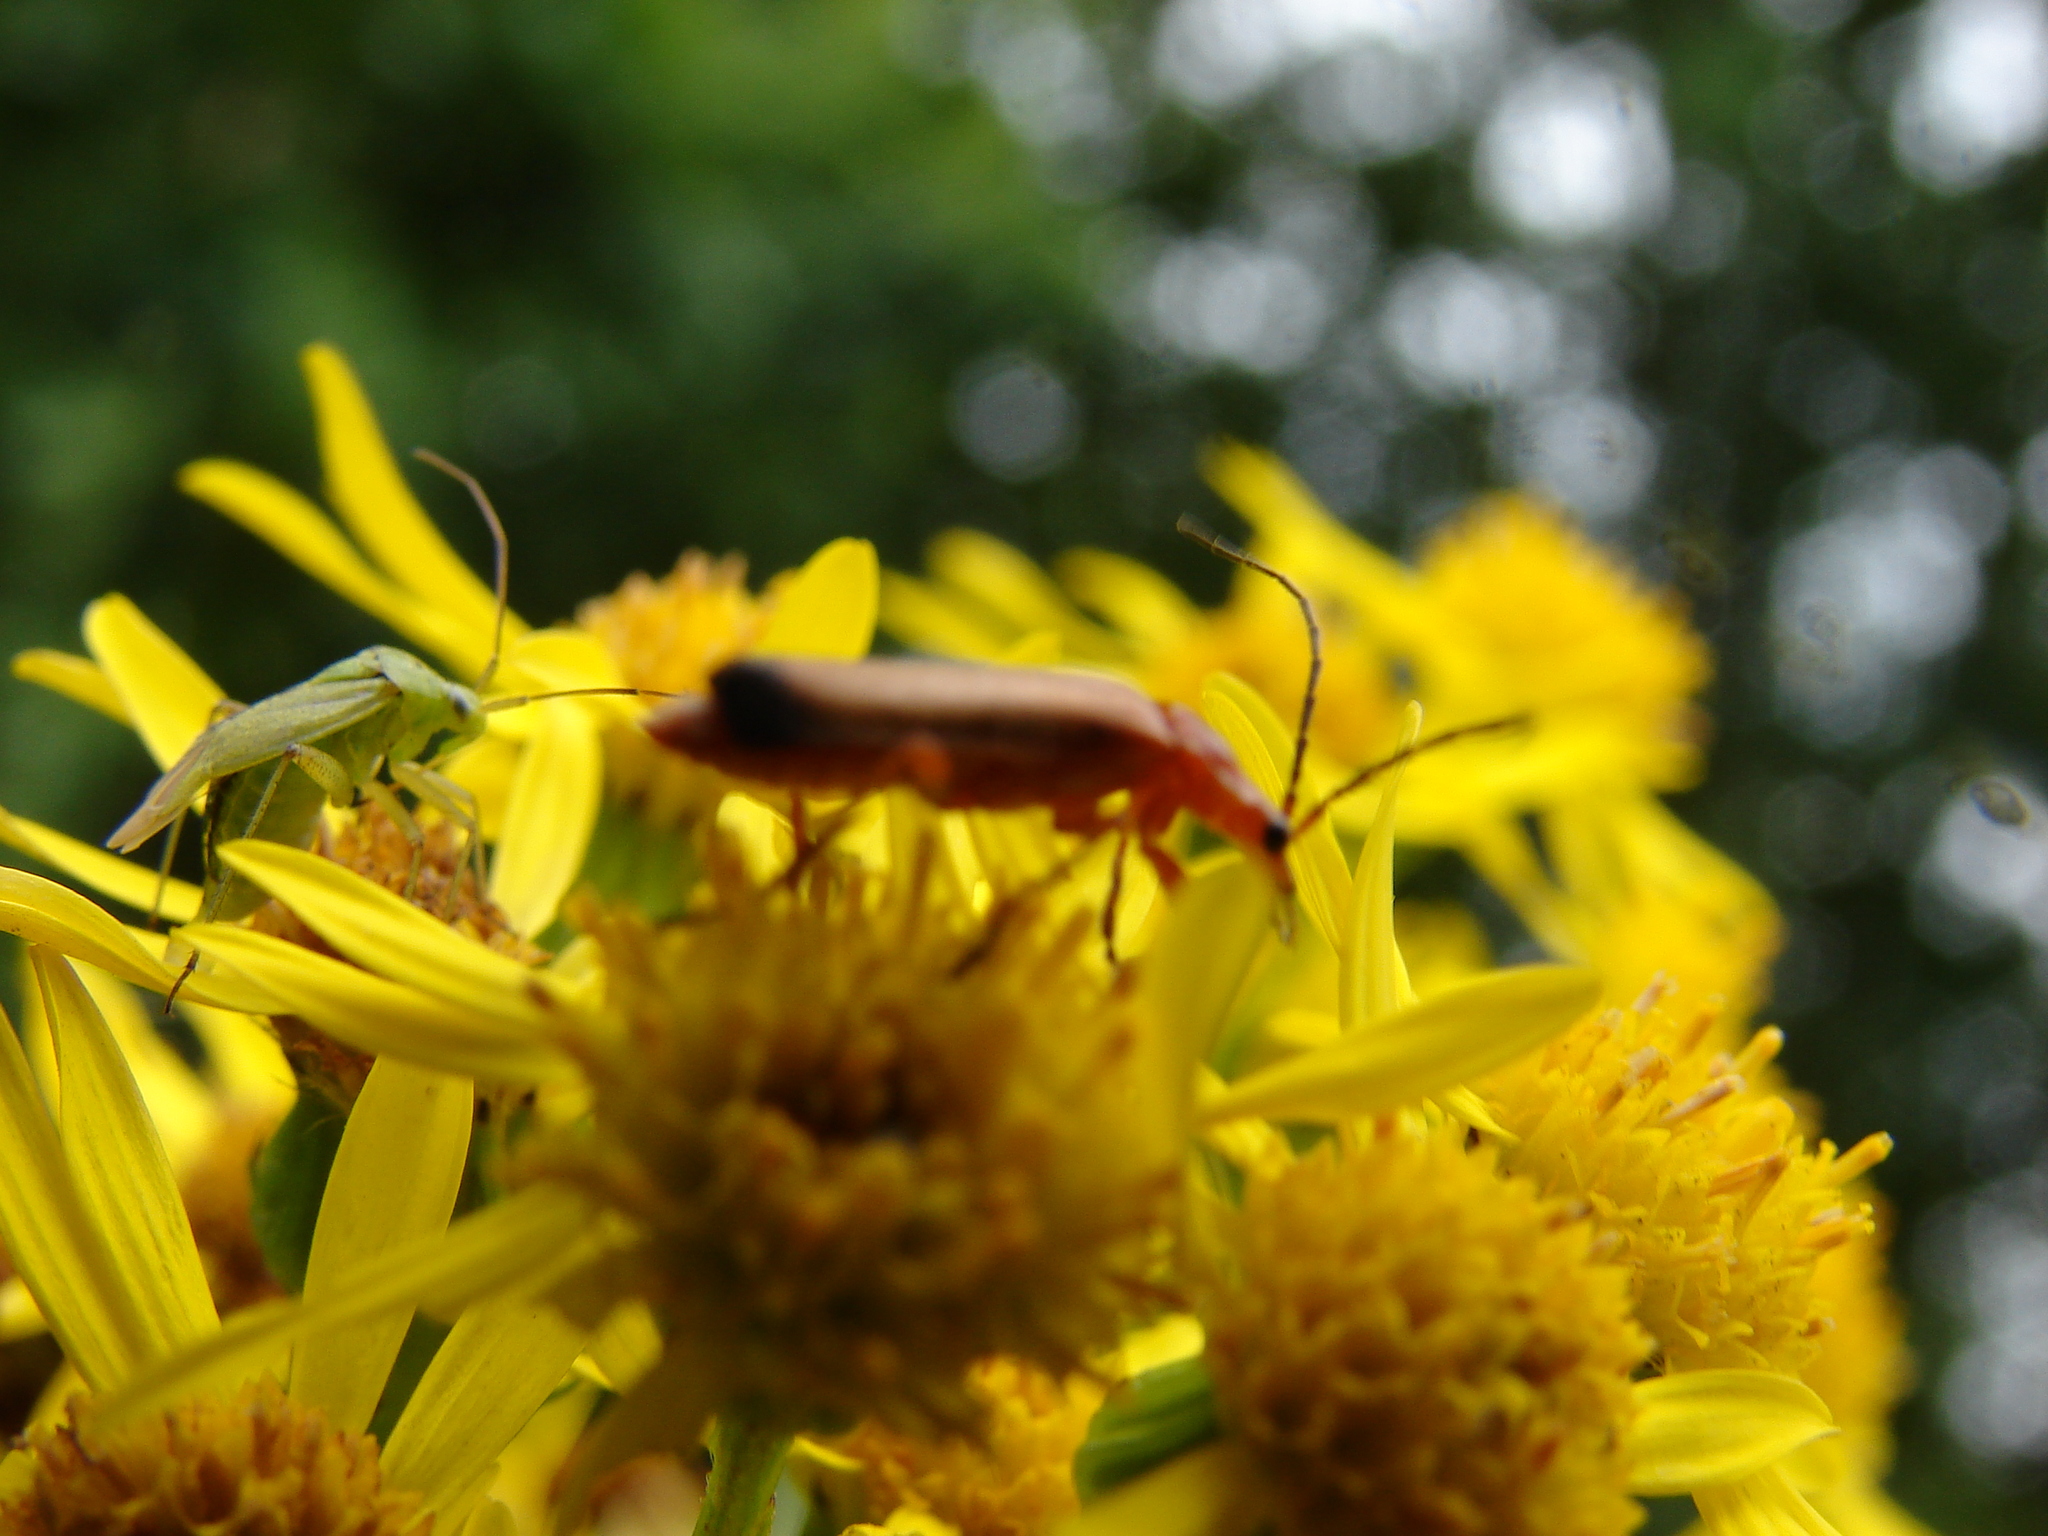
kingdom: Animalia
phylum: Arthropoda
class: Insecta
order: Hemiptera
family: Miridae
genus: Closterotomus
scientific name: Closterotomus norvegicus
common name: Plant bug
